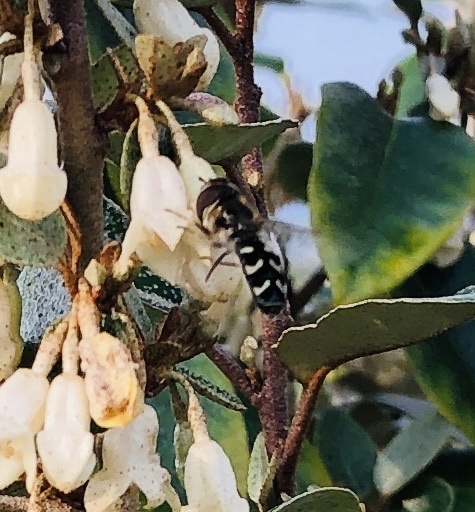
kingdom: Animalia
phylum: Arthropoda
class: Insecta
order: Diptera
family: Syrphidae
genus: Scaeva
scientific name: Scaeva pyrastri
